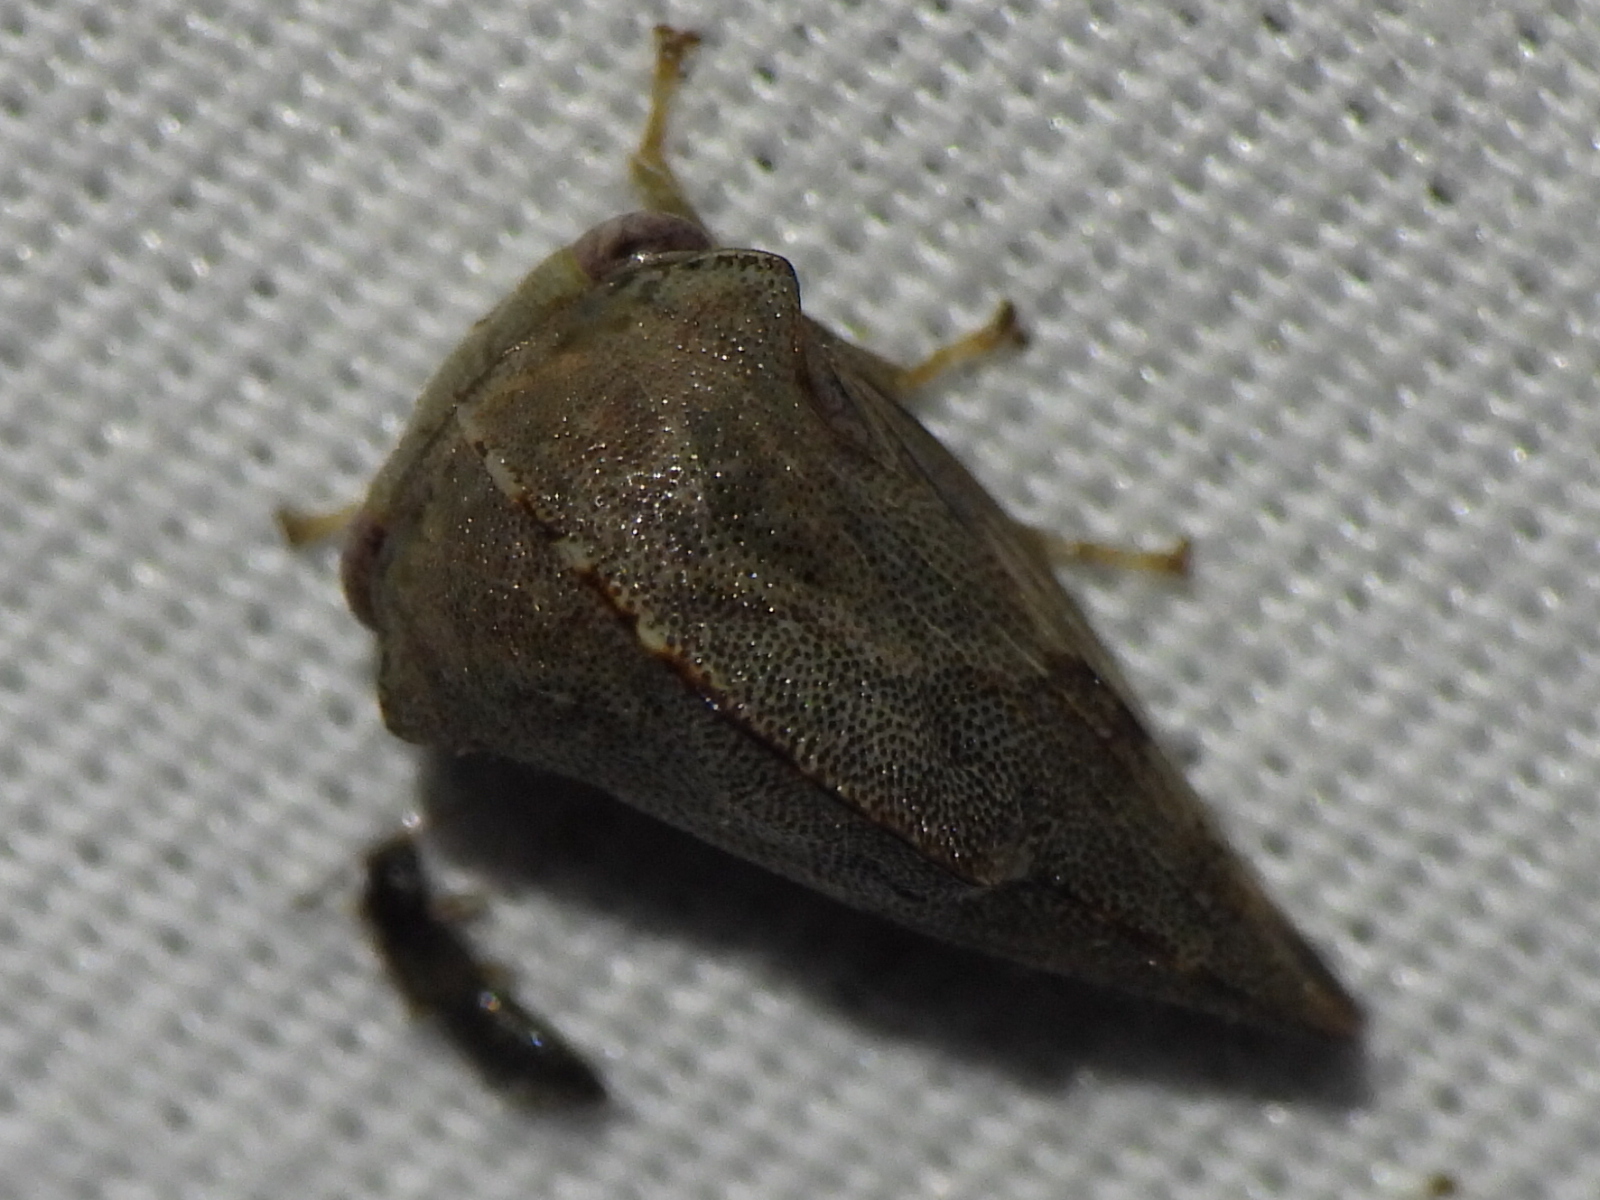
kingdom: Animalia
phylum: Arthropoda
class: Insecta
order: Hemiptera
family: Membracidae
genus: Telamona
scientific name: Telamona reclivata
